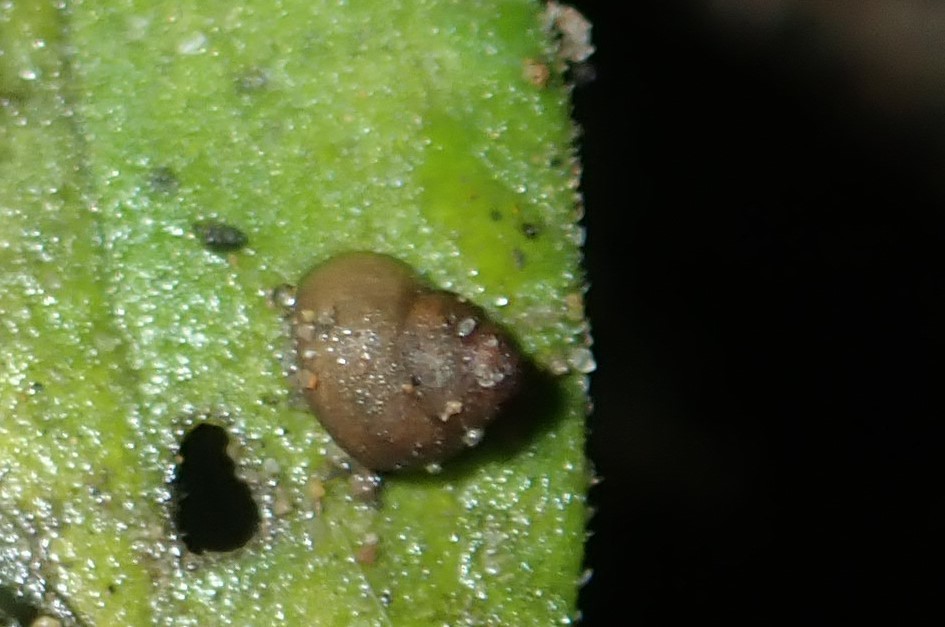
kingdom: Animalia
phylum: Mollusca
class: Gastropoda
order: Littorinimorpha
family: Tateidae
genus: Posticobia
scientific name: Posticobia brazieri
